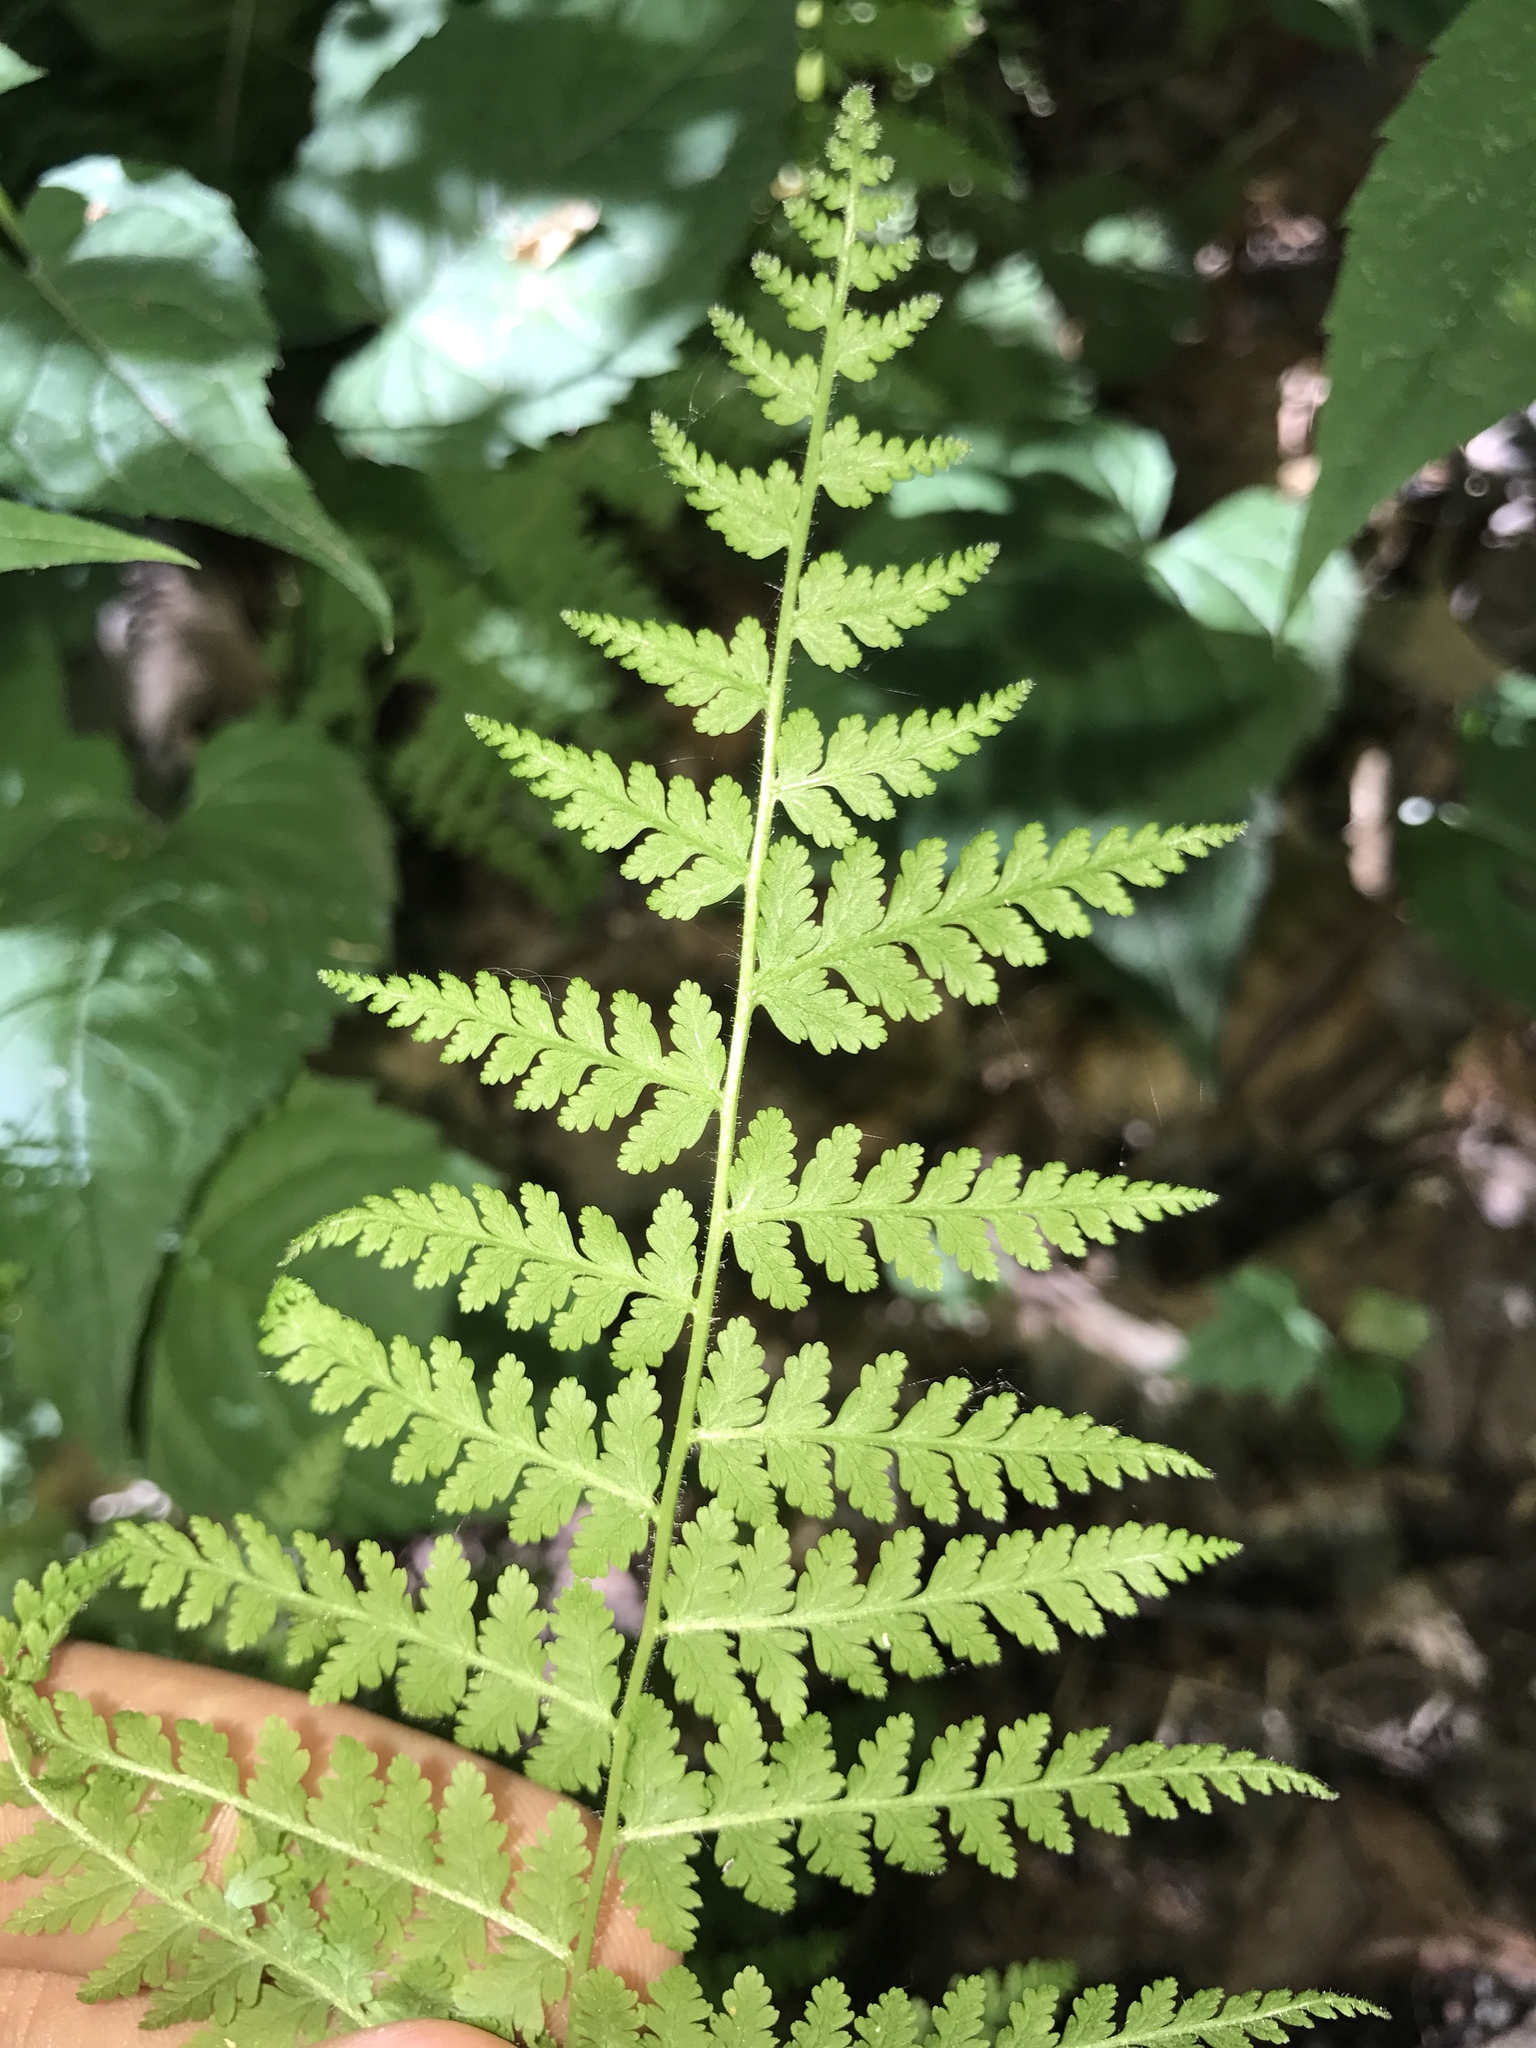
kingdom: Plantae
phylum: Tracheophyta
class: Polypodiopsida
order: Polypodiales
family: Dennstaedtiaceae
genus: Sitobolium
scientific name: Sitobolium punctilobum
